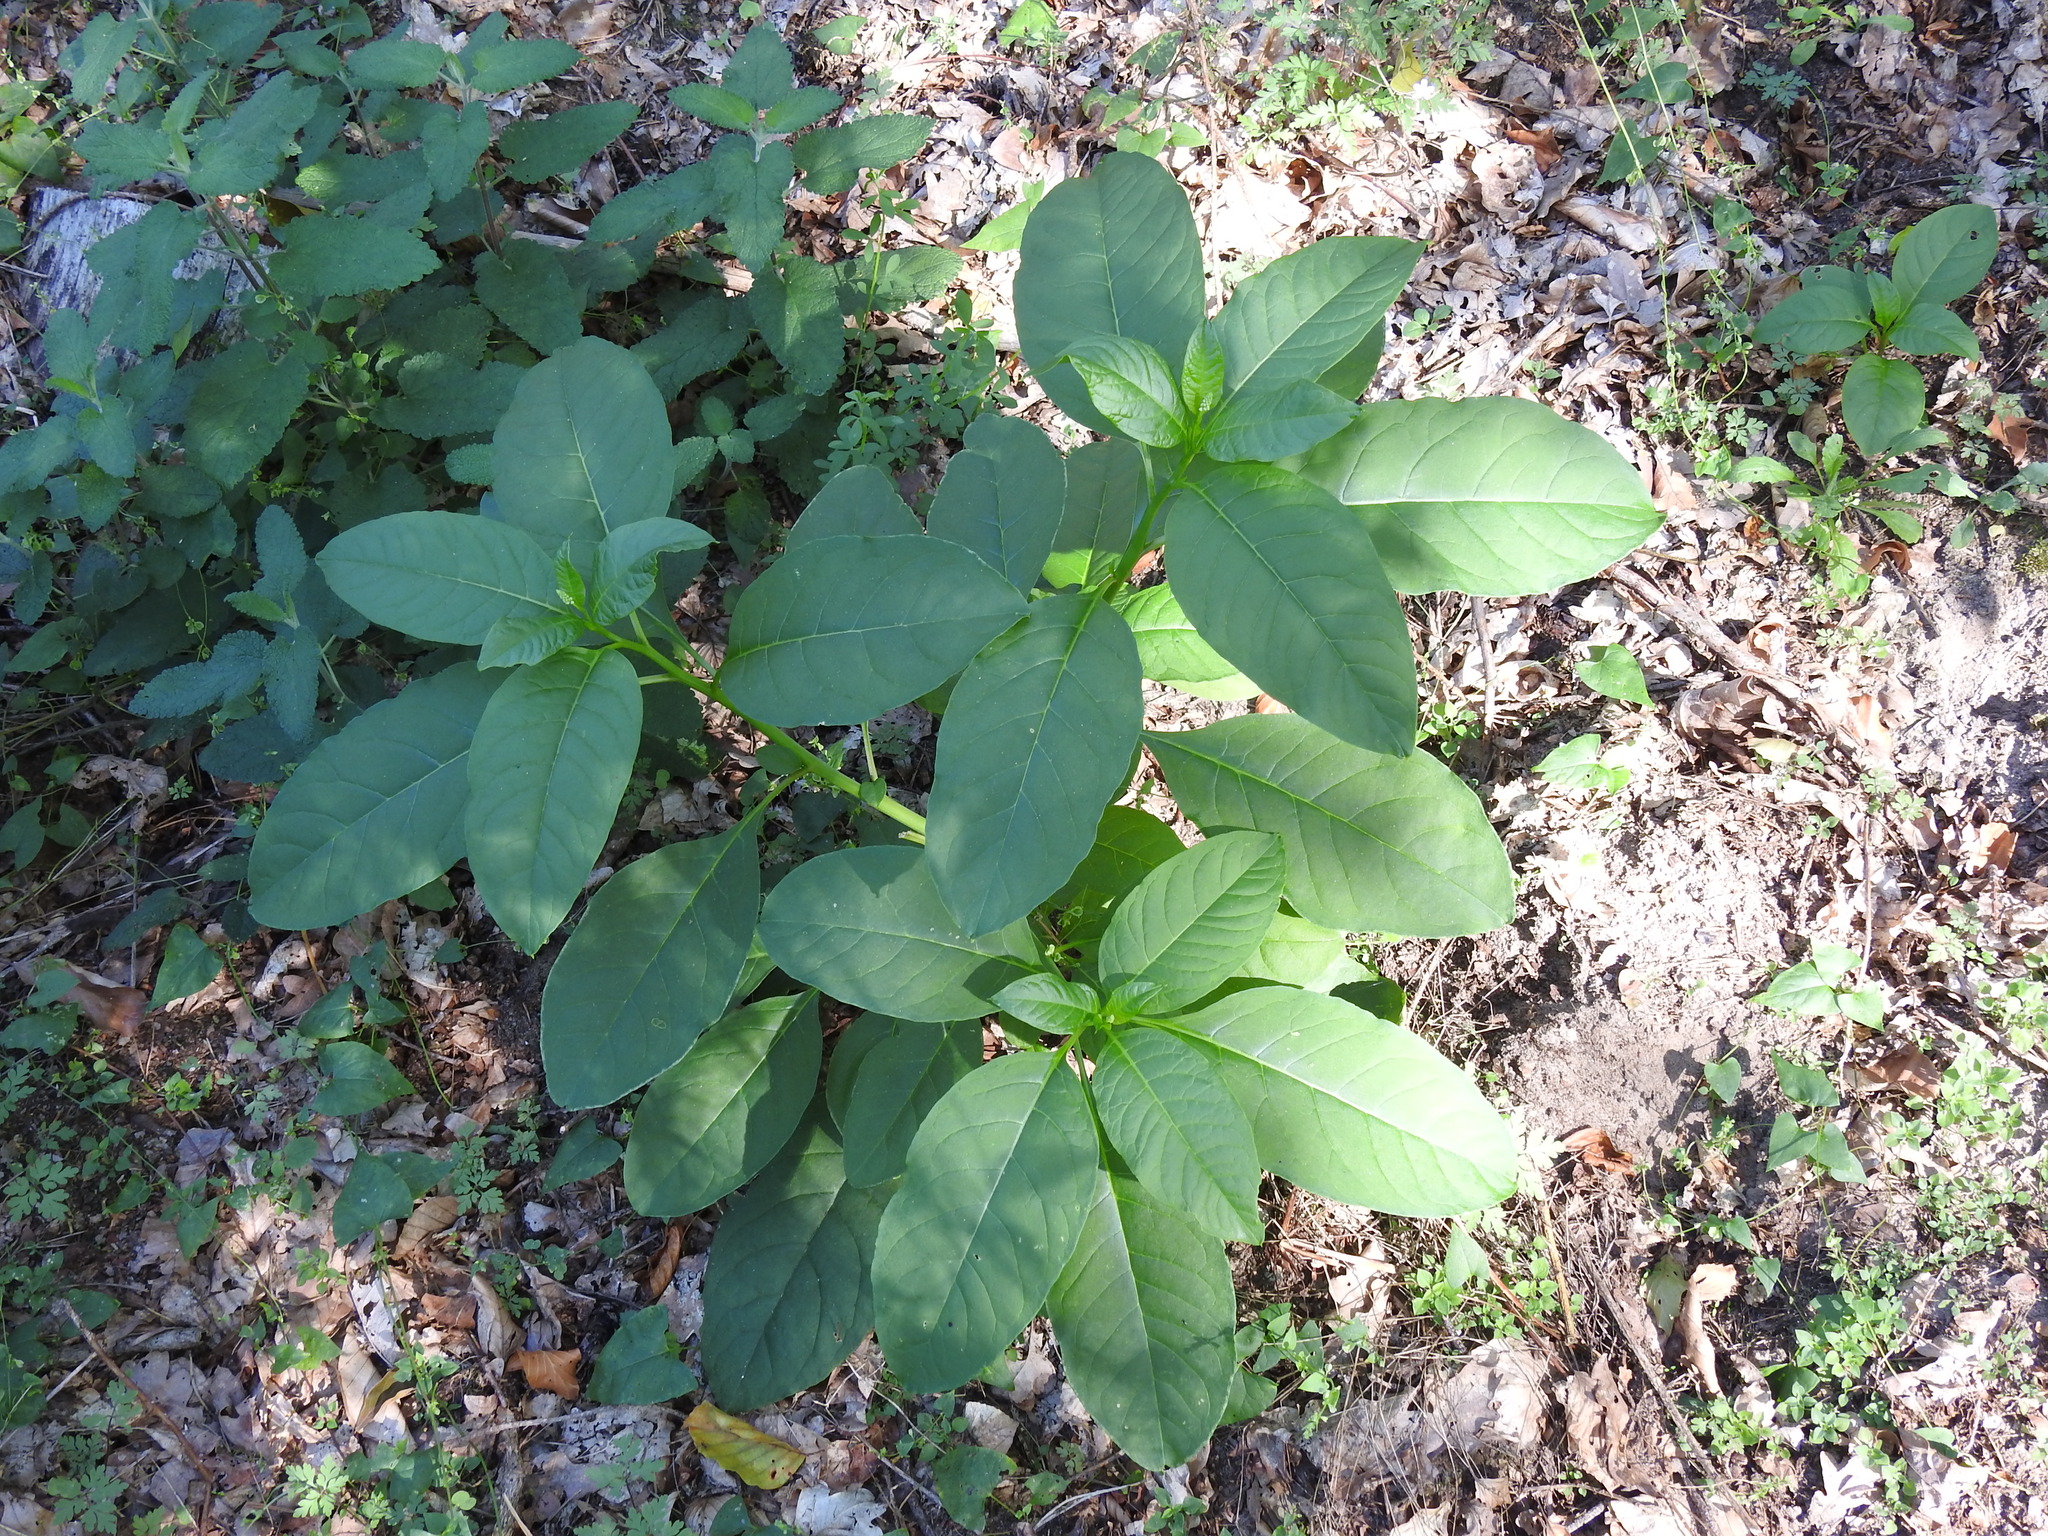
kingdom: Plantae
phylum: Tracheophyta
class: Magnoliopsida
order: Caryophyllales
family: Phytolaccaceae
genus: Phytolacca
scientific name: Phytolacca americana
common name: American pokeweed
